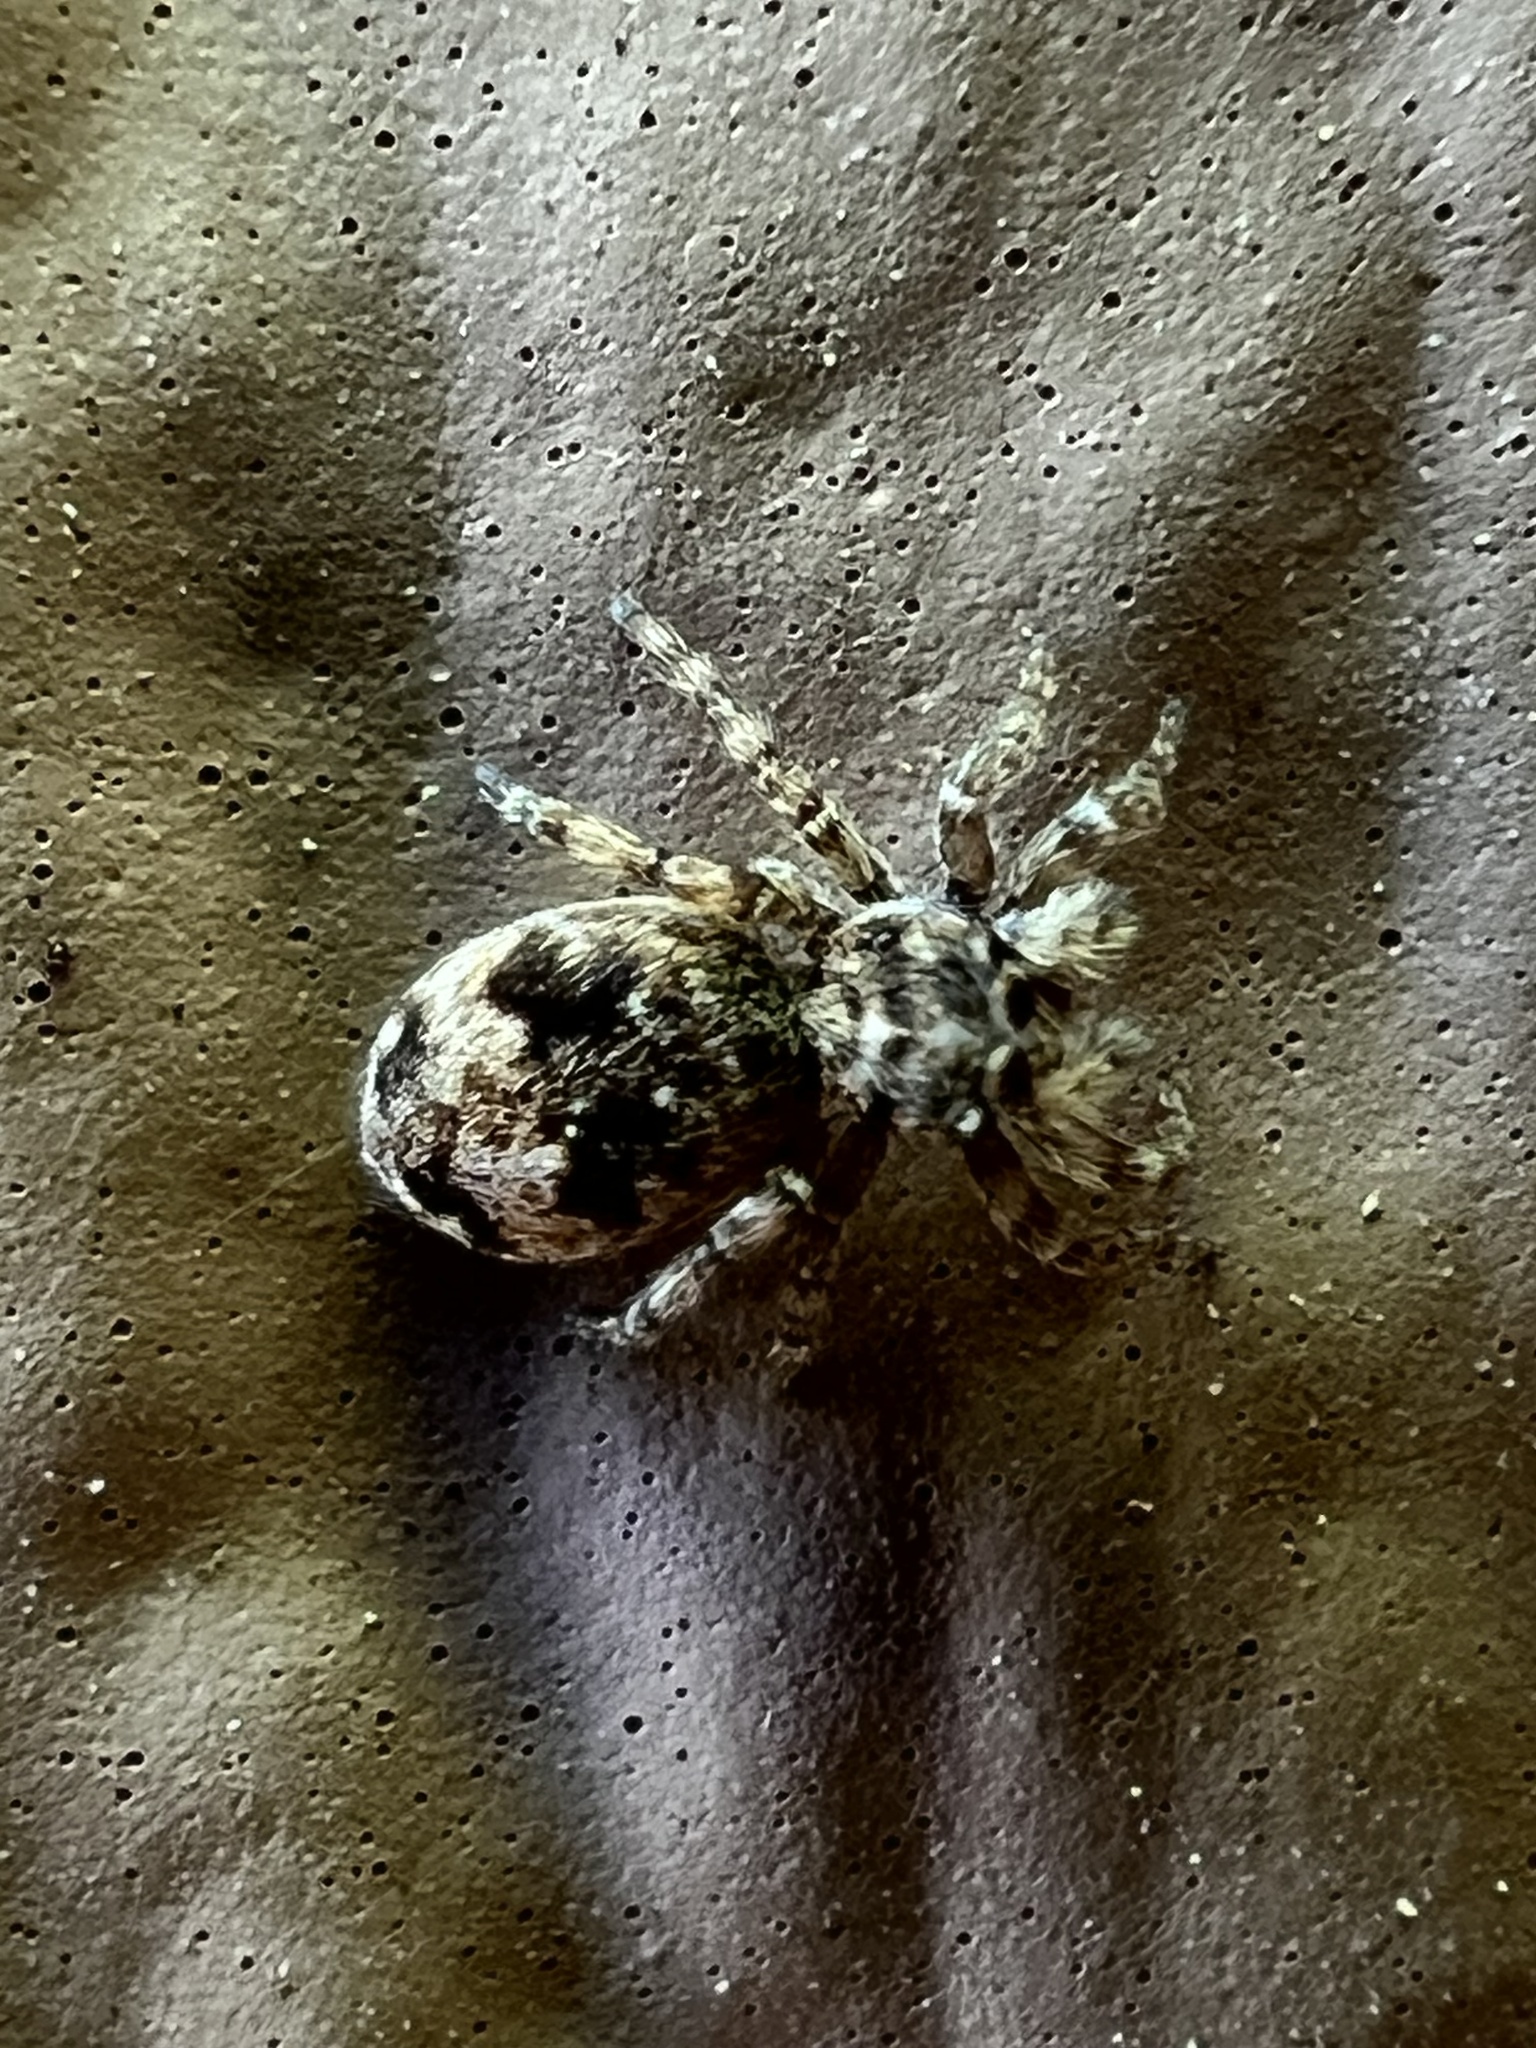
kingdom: Animalia
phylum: Arthropoda
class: Arachnida
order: Araneae
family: Salticidae
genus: Attulus
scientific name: Attulus fasciger
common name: Asiatic wall jumping spider
